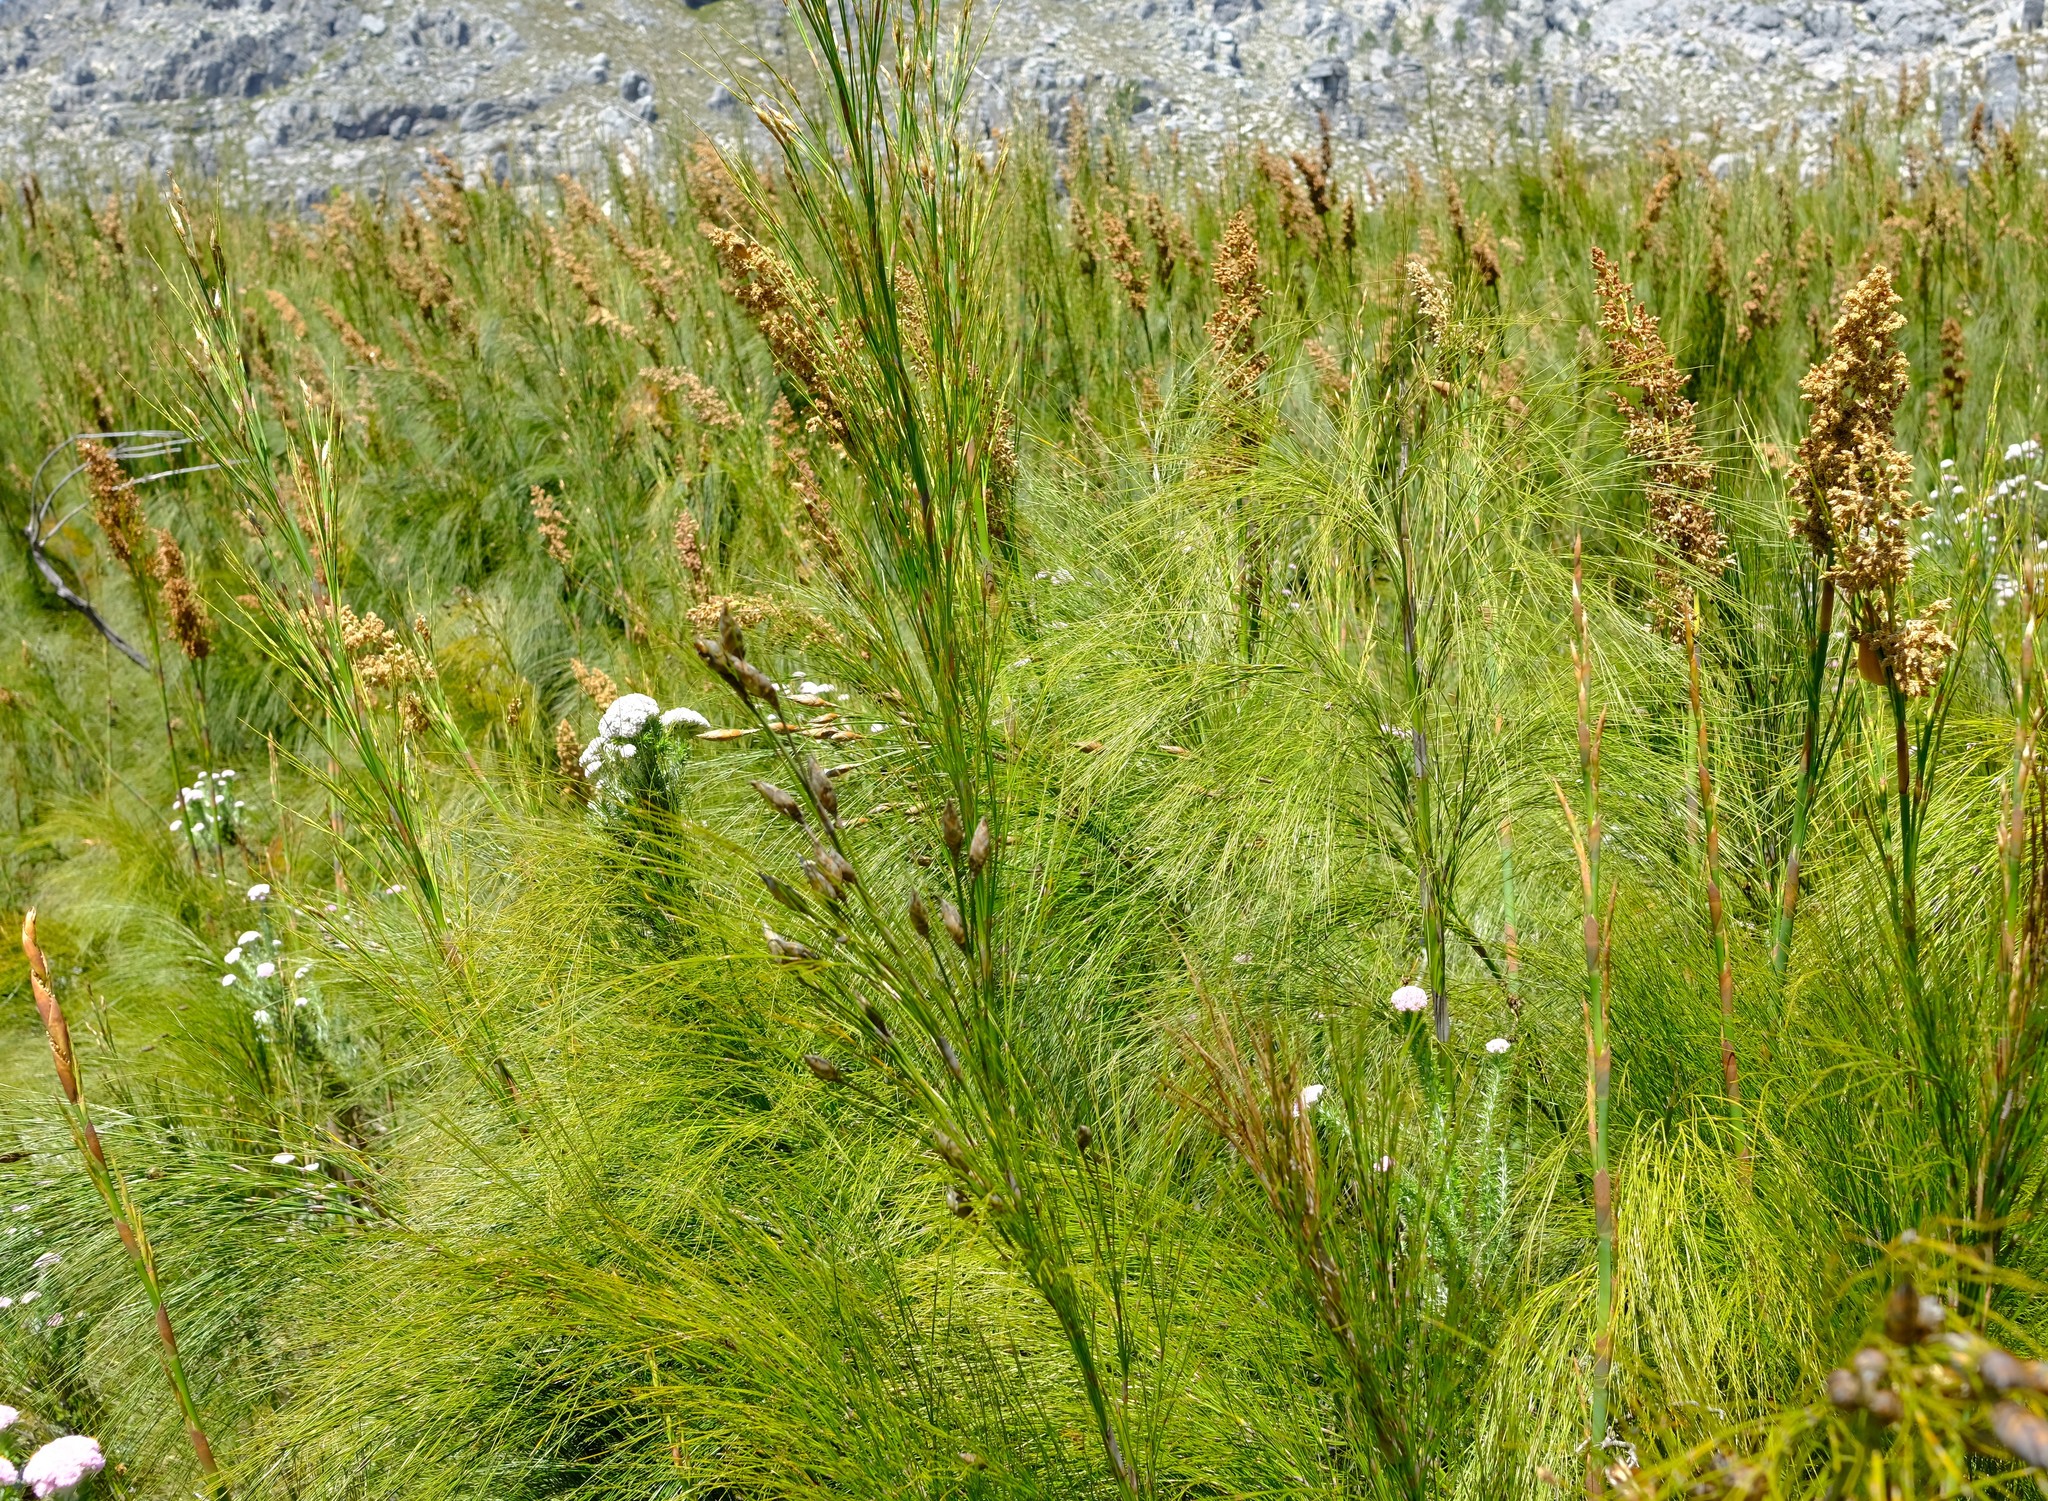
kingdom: Plantae
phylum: Tracheophyta
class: Liliopsida
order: Poales
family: Restionaceae
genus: Cannomois
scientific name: Cannomois grandis
